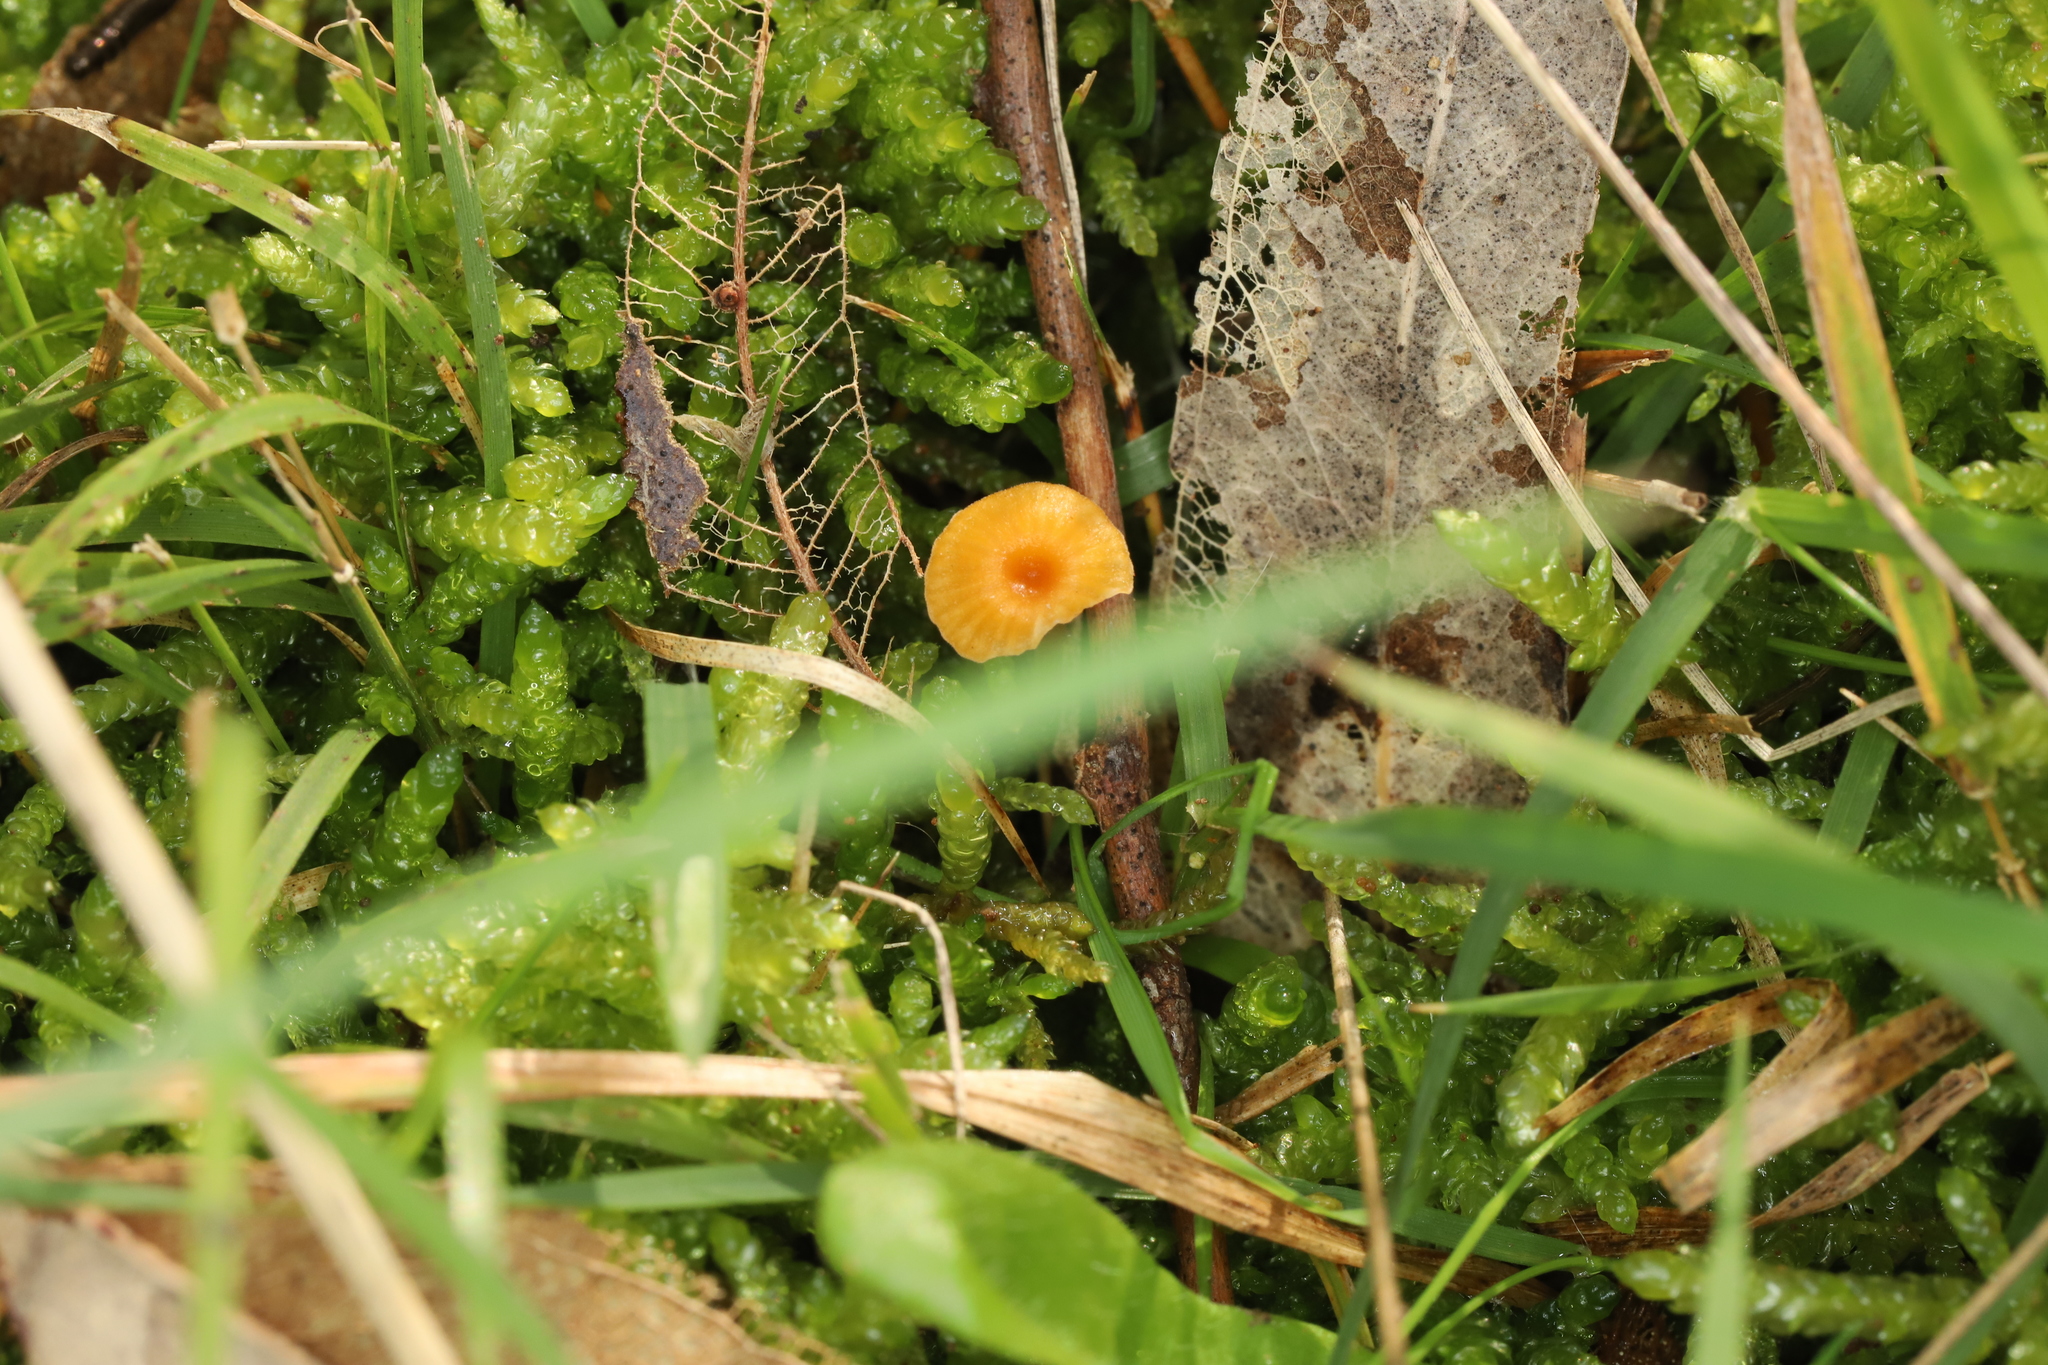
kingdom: Fungi
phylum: Basidiomycota
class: Agaricomycetes
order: Hymenochaetales
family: Rickenellaceae
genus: Rickenella
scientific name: Rickenella fibula
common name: Orange mosscap
